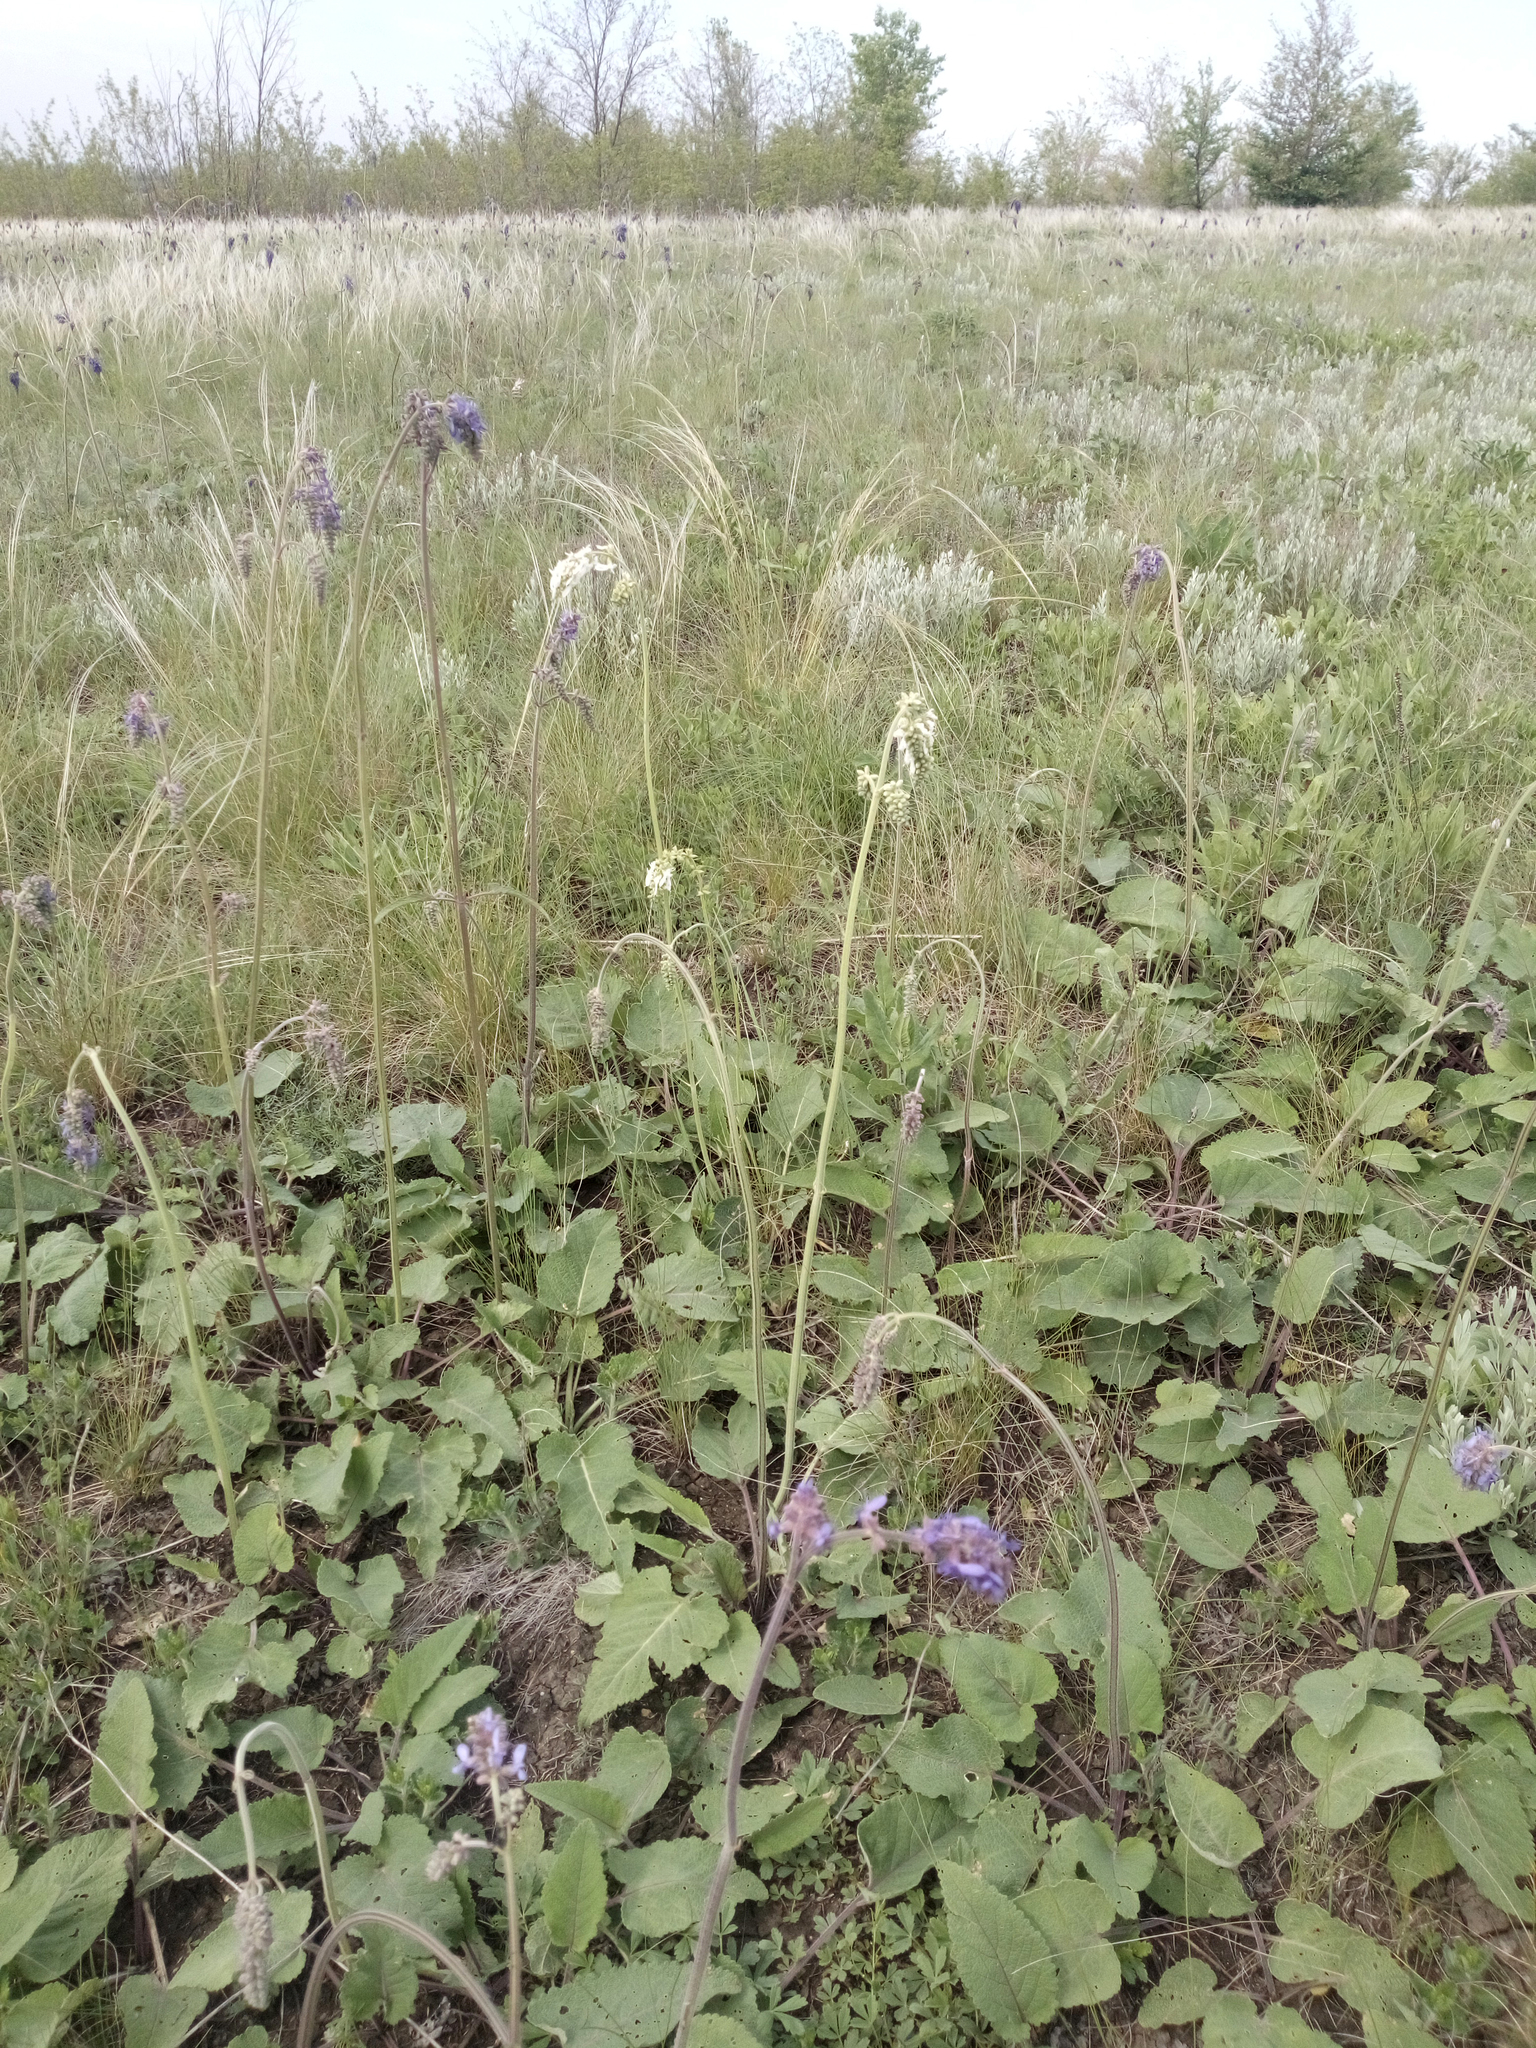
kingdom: Plantae
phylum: Tracheophyta
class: Magnoliopsida
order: Lamiales
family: Lamiaceae
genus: Salvia
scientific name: Salvia nutans
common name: Nodding sage
